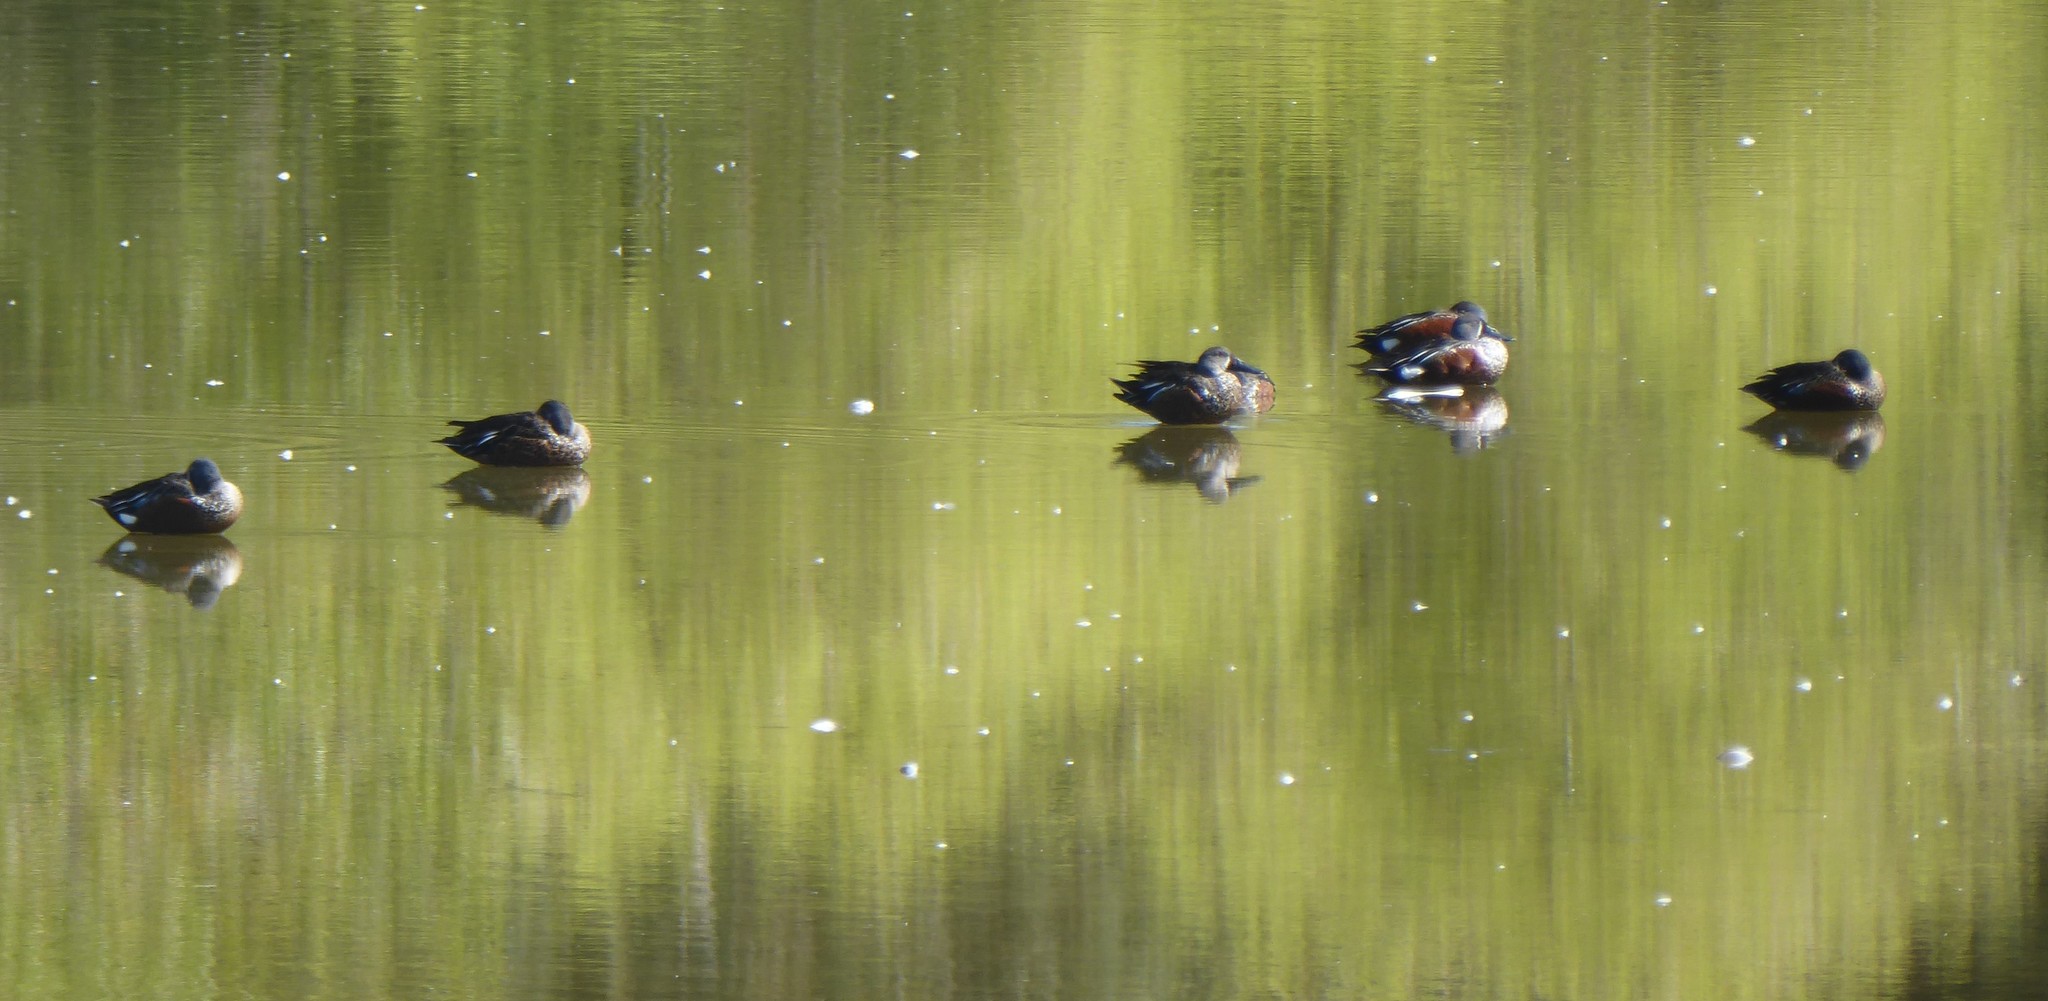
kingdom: Animalia
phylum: Chordata
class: Aves
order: Anseriformes
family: Anatidae
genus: Spatula
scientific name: Spatula rhynchotis
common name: Australian shoveler
